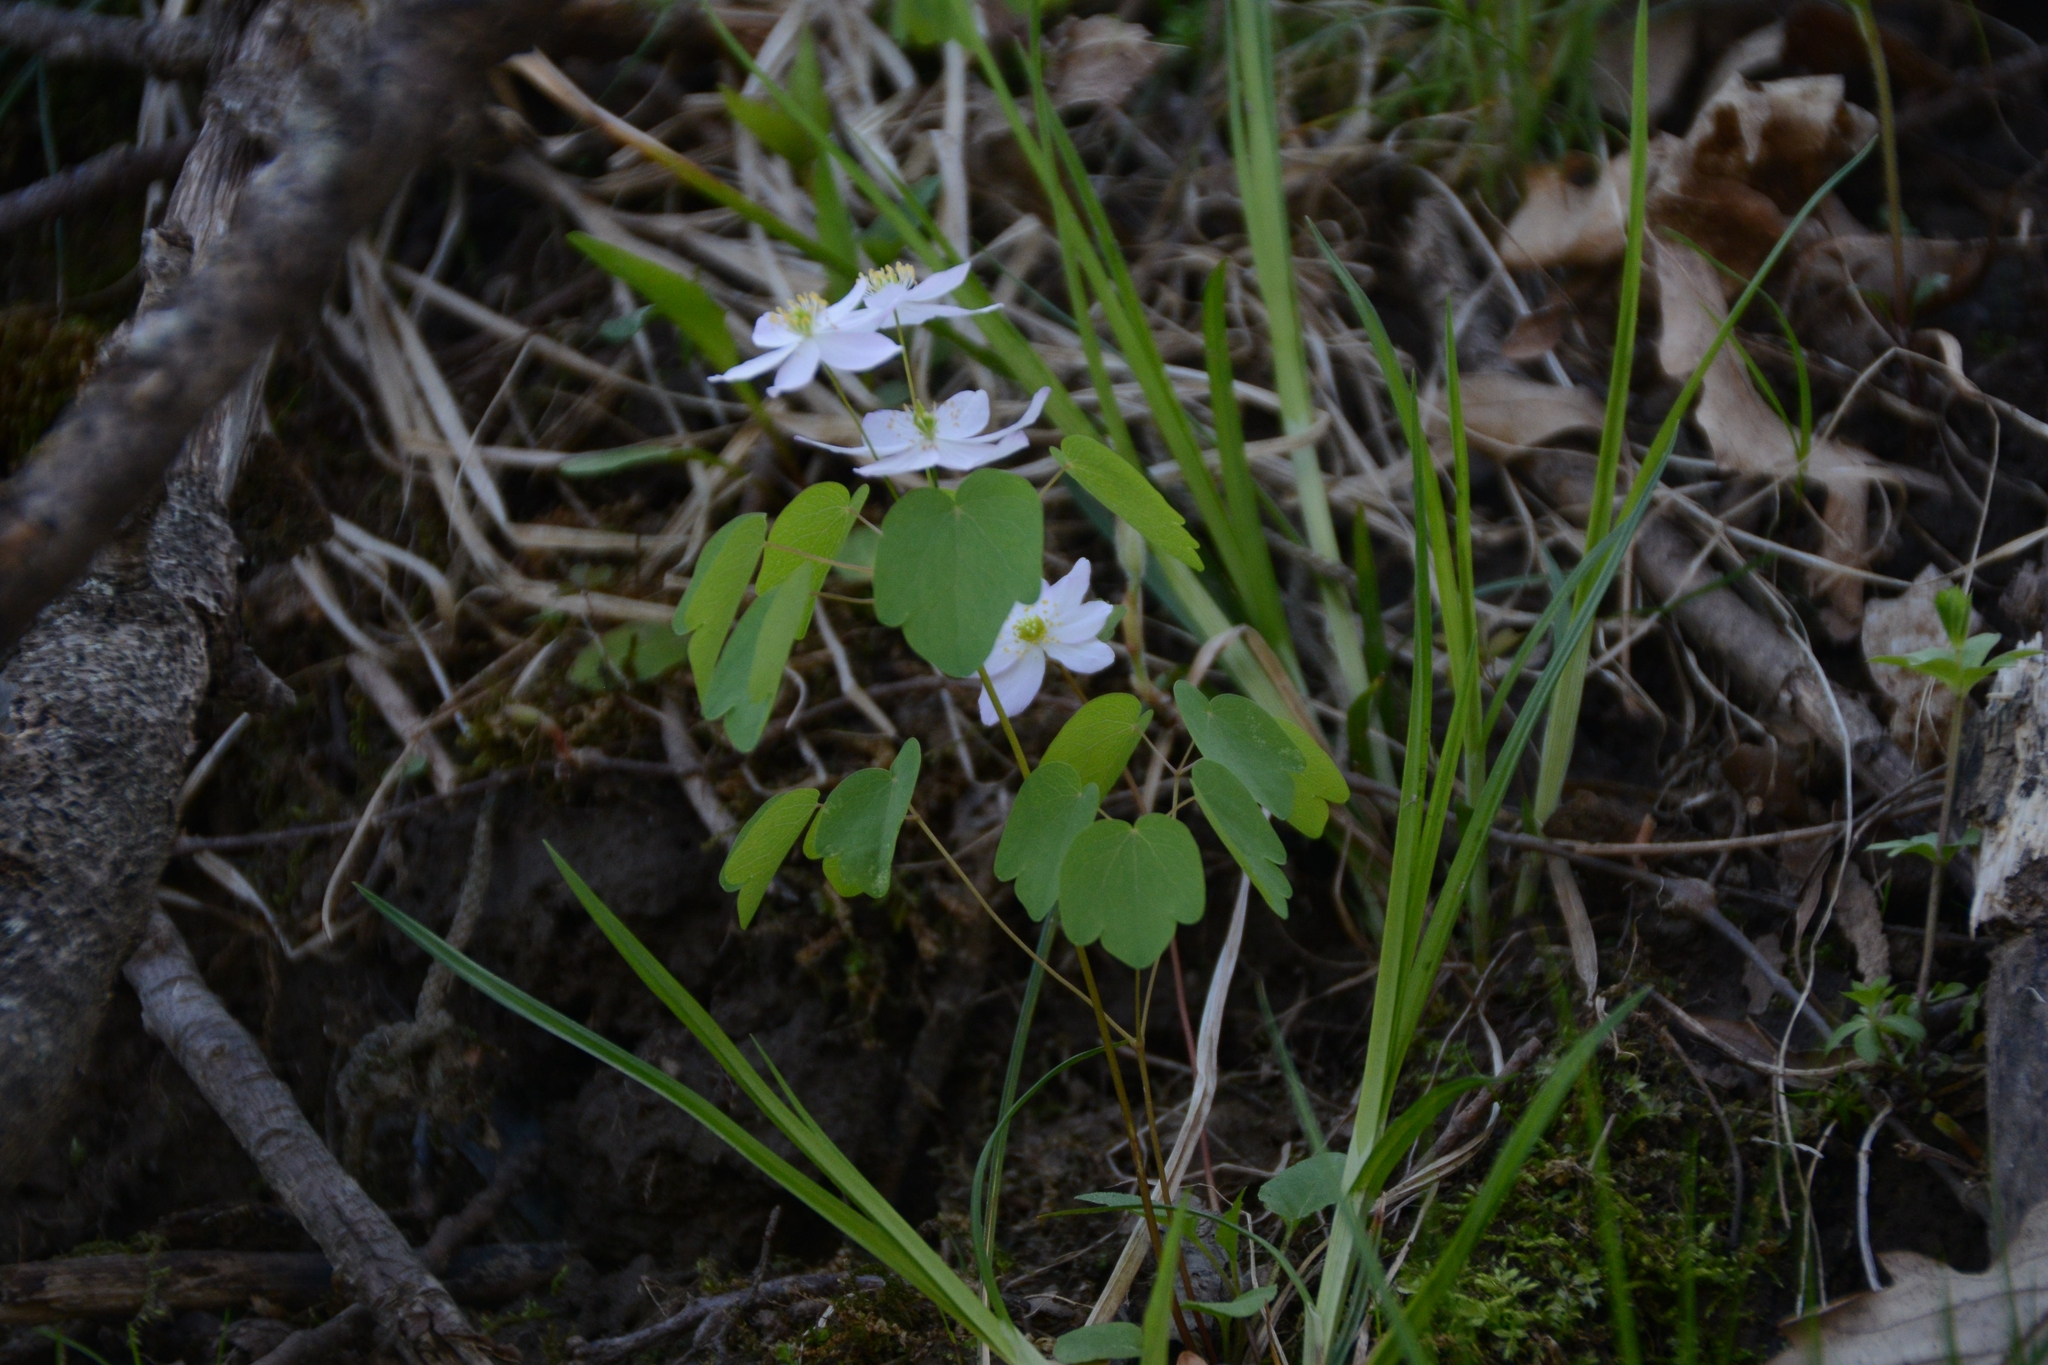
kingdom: Plantae
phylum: Tracheophyta
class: Magnoliopsida
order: Ranunculales
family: Ranunculaceae
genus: Thalictrum
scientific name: Thalictrum thalictroides
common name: Rue-anemone
